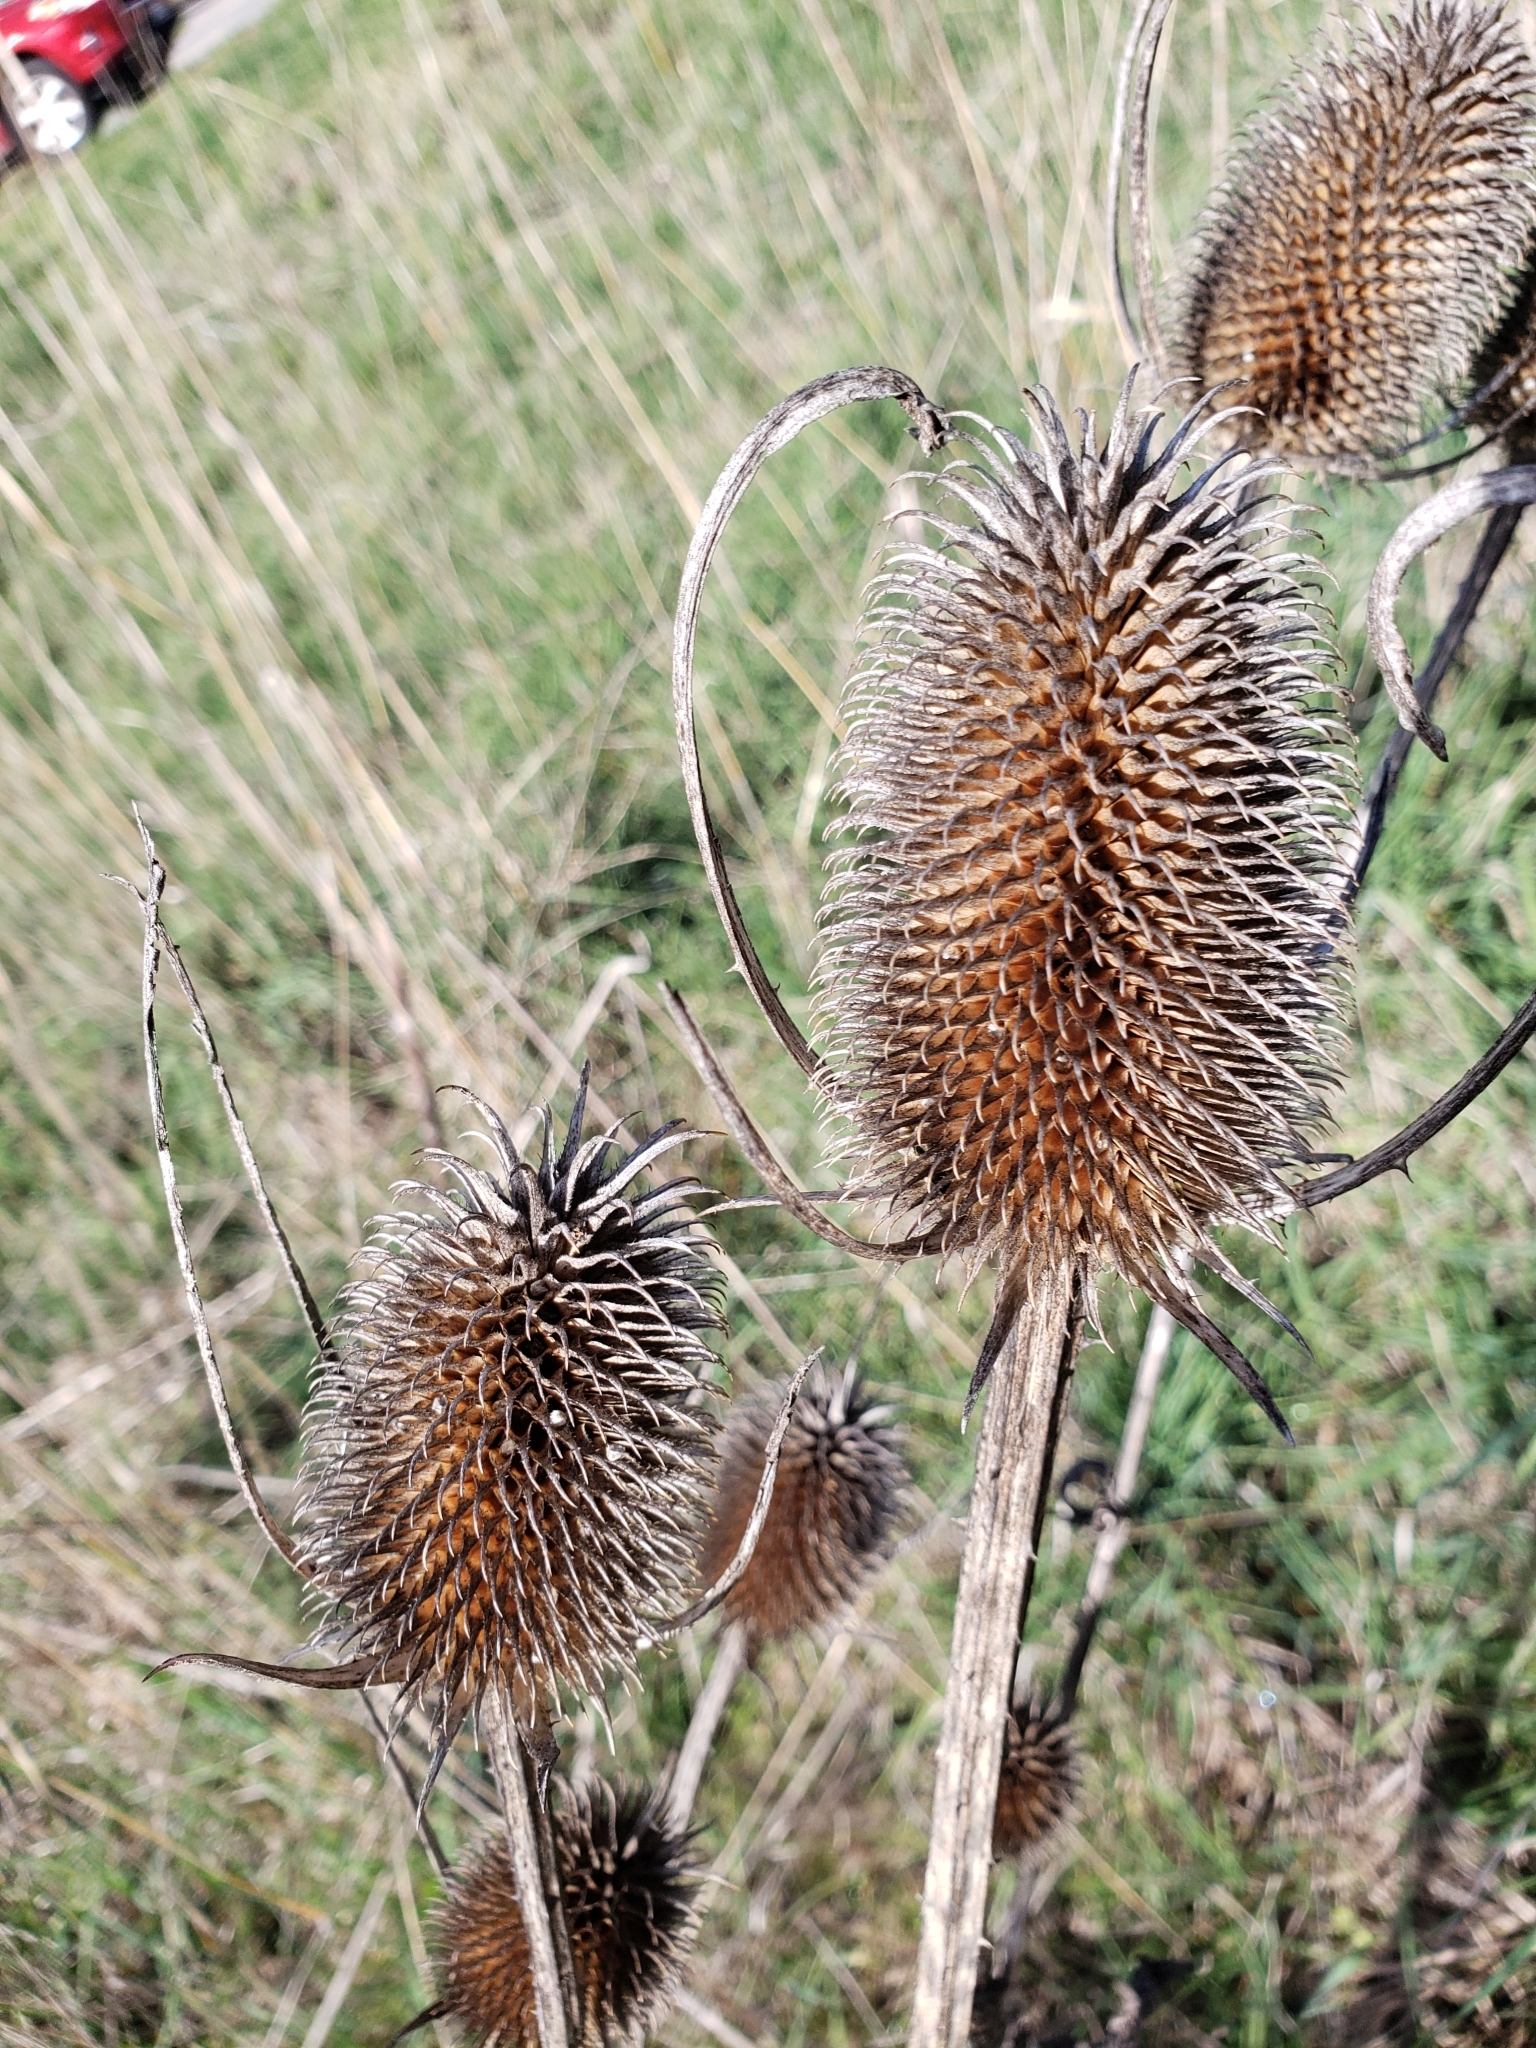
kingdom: Plantae
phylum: Tracheophyta
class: Magnoliopsida
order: Dipsacales
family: Caprifoliaceae
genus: Dipsacus
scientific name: Dipsacus sativus
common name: Fuller's teasel
